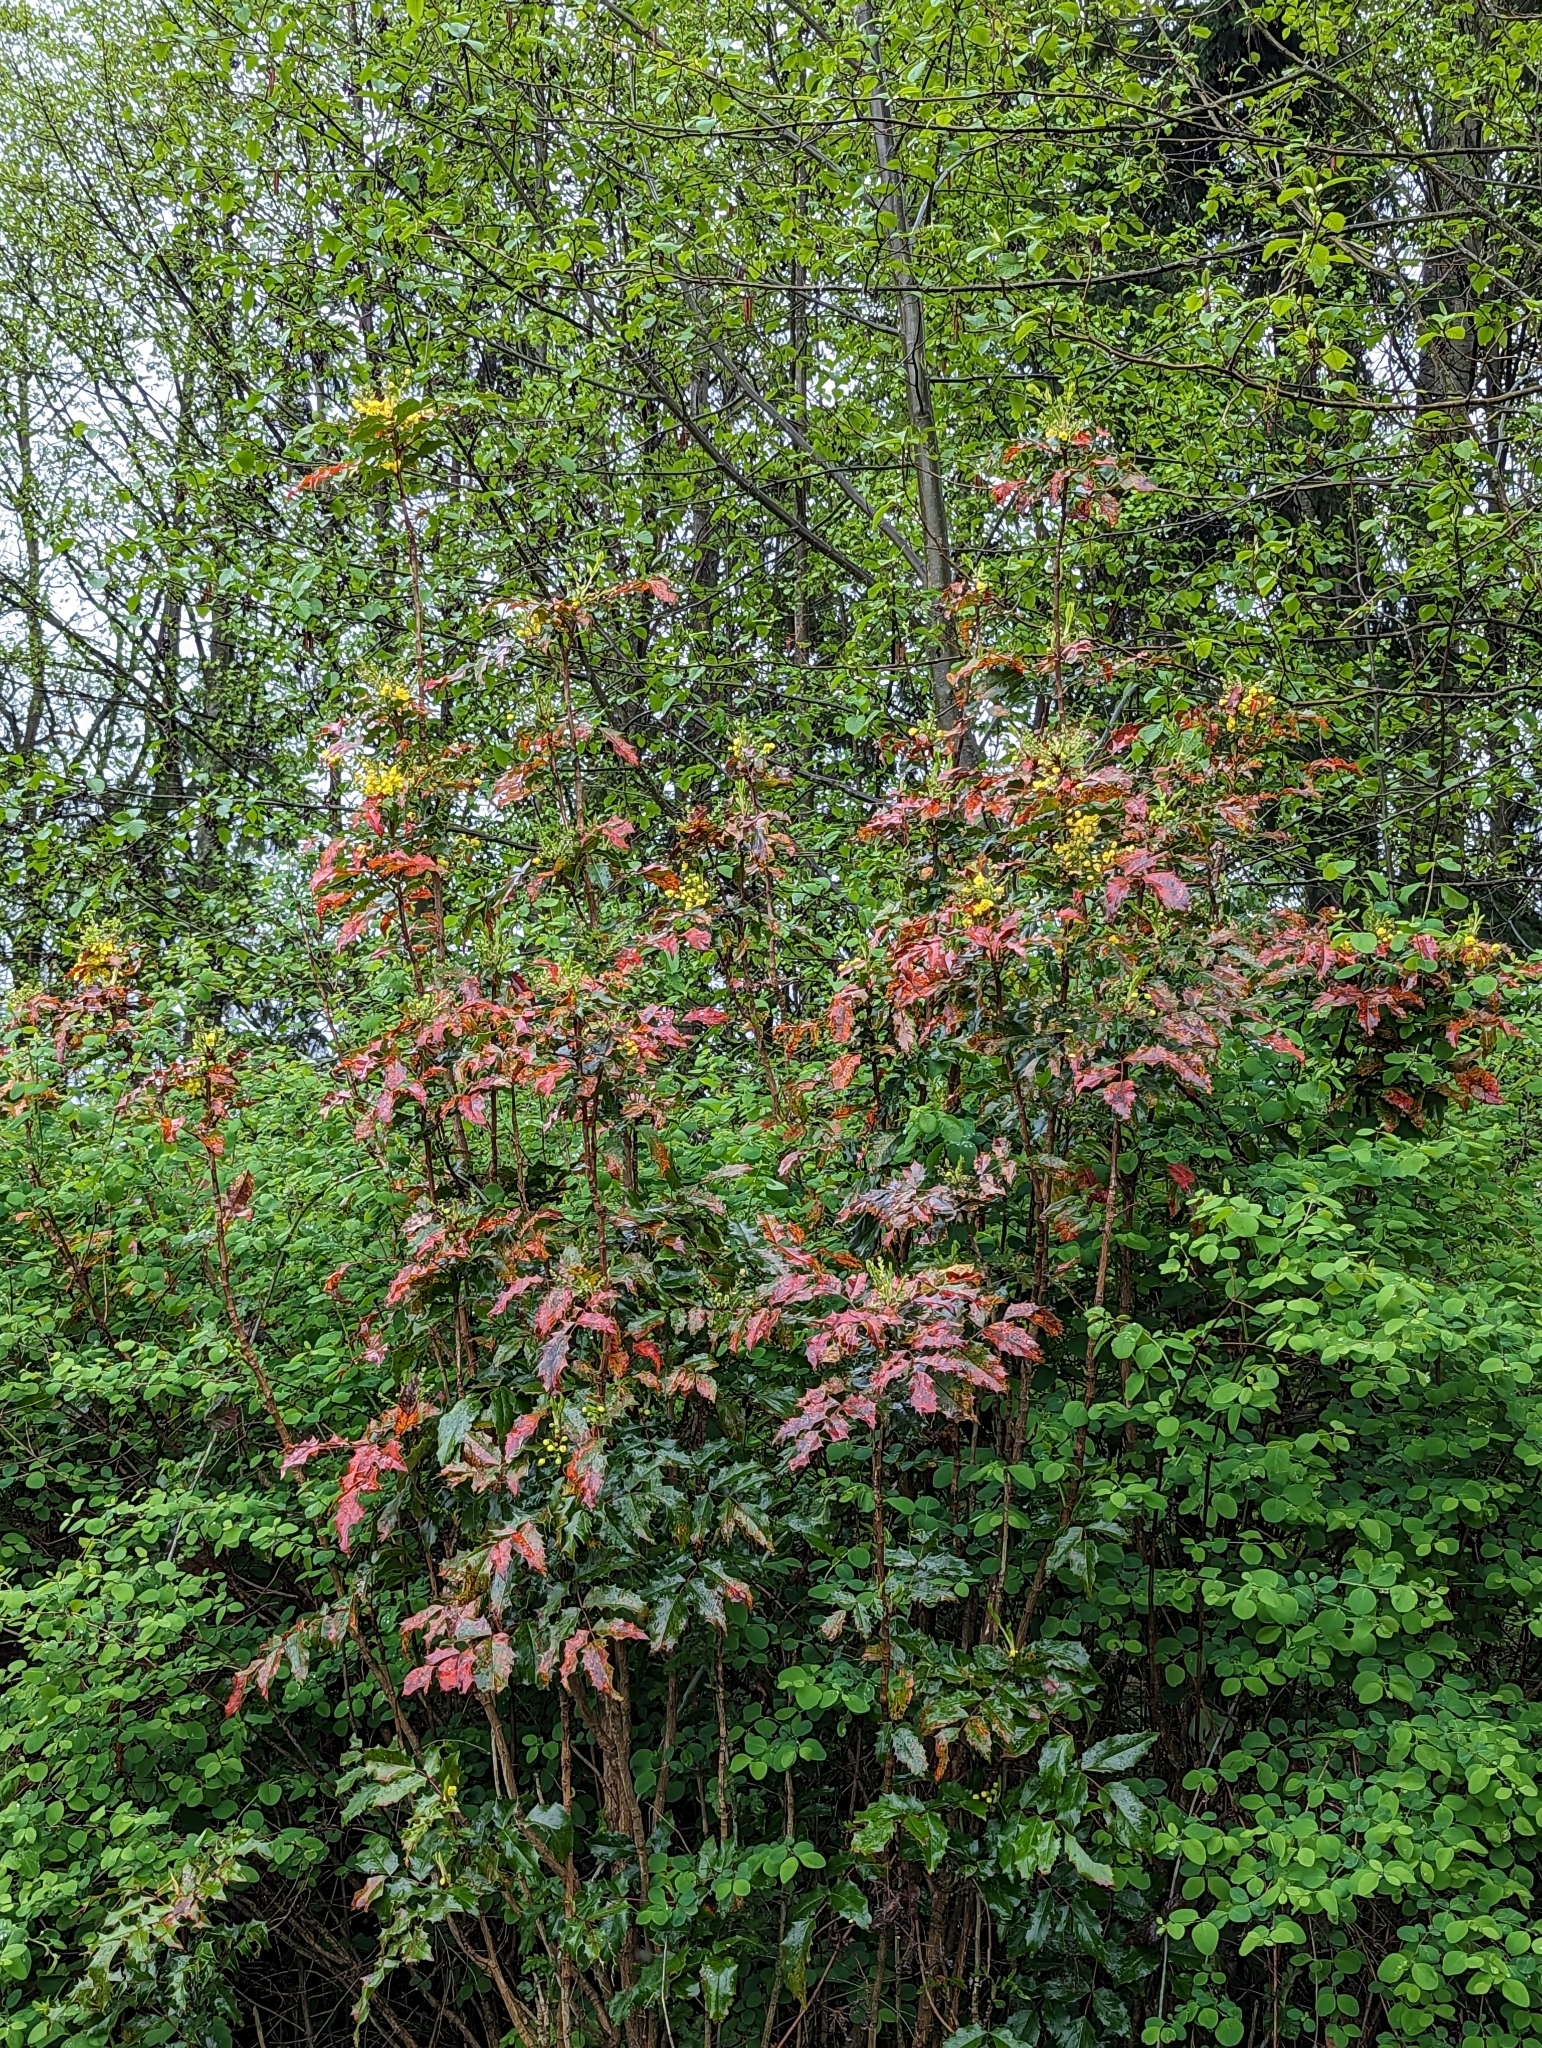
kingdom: Plantae
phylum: Tracheophyta
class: Magnoliopsida
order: Ranunculales
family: Berberidaceae
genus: Mahonia
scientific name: Mahonia aquifolium
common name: Oregon-grape
